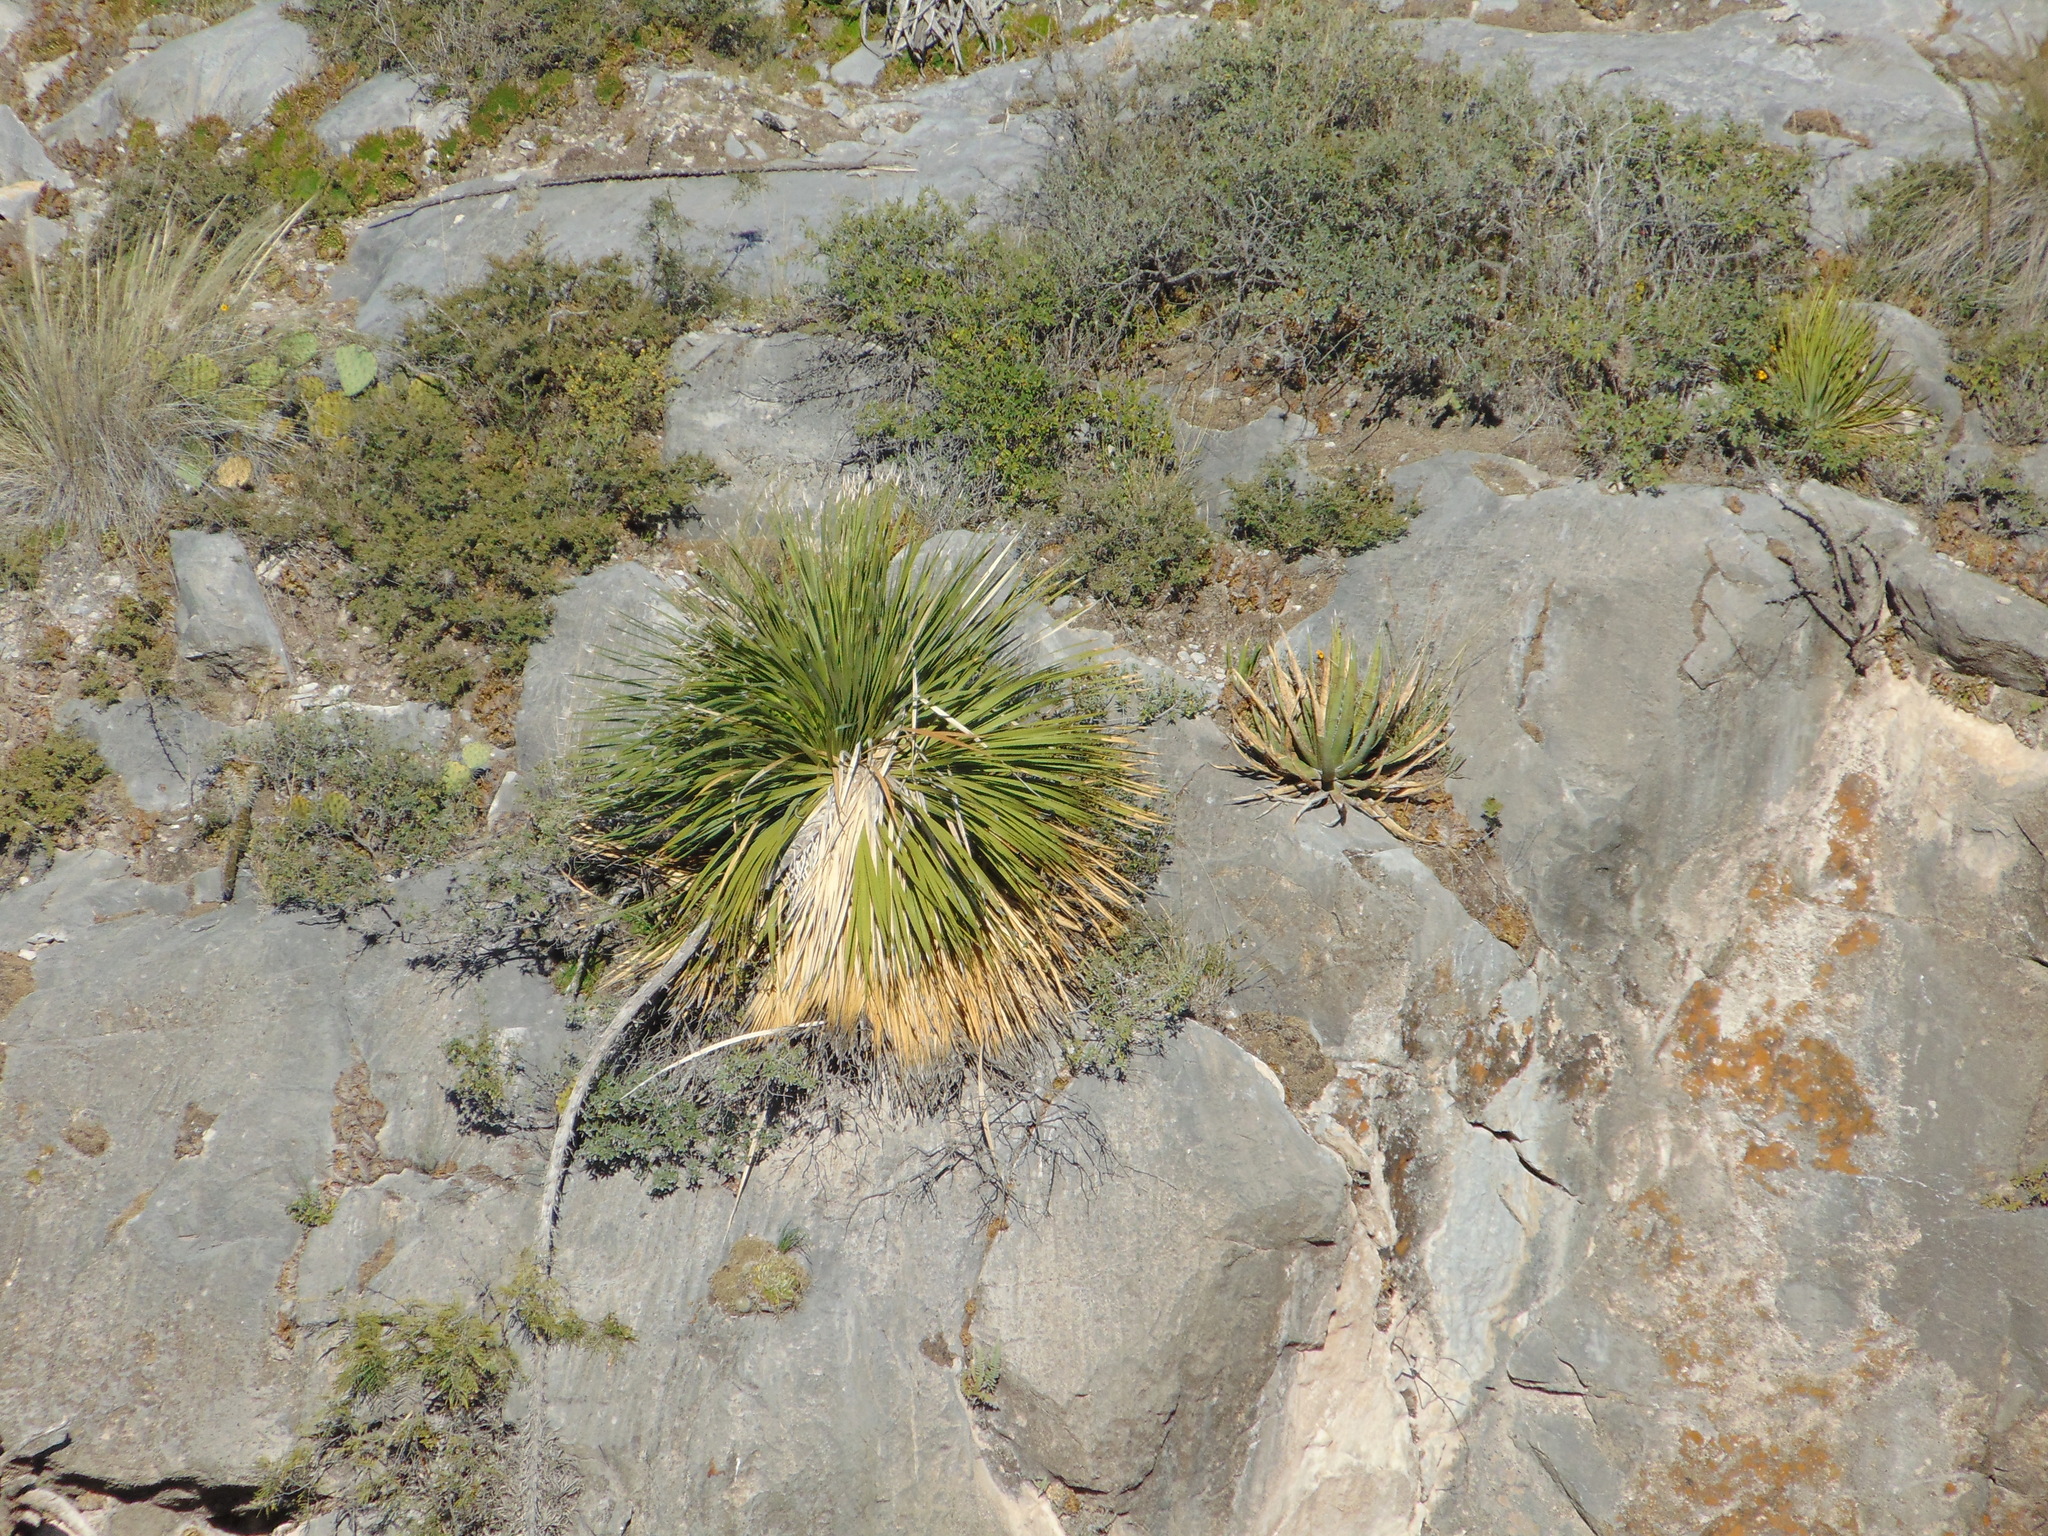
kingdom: Plantae
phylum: Tracheophyta
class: Liliopsida
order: Asparagales
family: Asparagaceae
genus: Dasylirion
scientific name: Dasylirion acrotrichum
